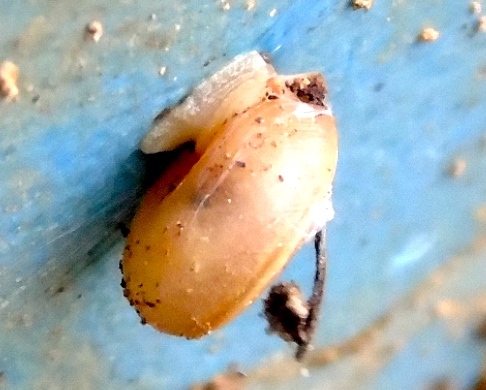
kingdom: Animalia
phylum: Mollusca
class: Gastropoda
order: Stylommatophora
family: Polygyridae
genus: Linisa
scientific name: Linisa
